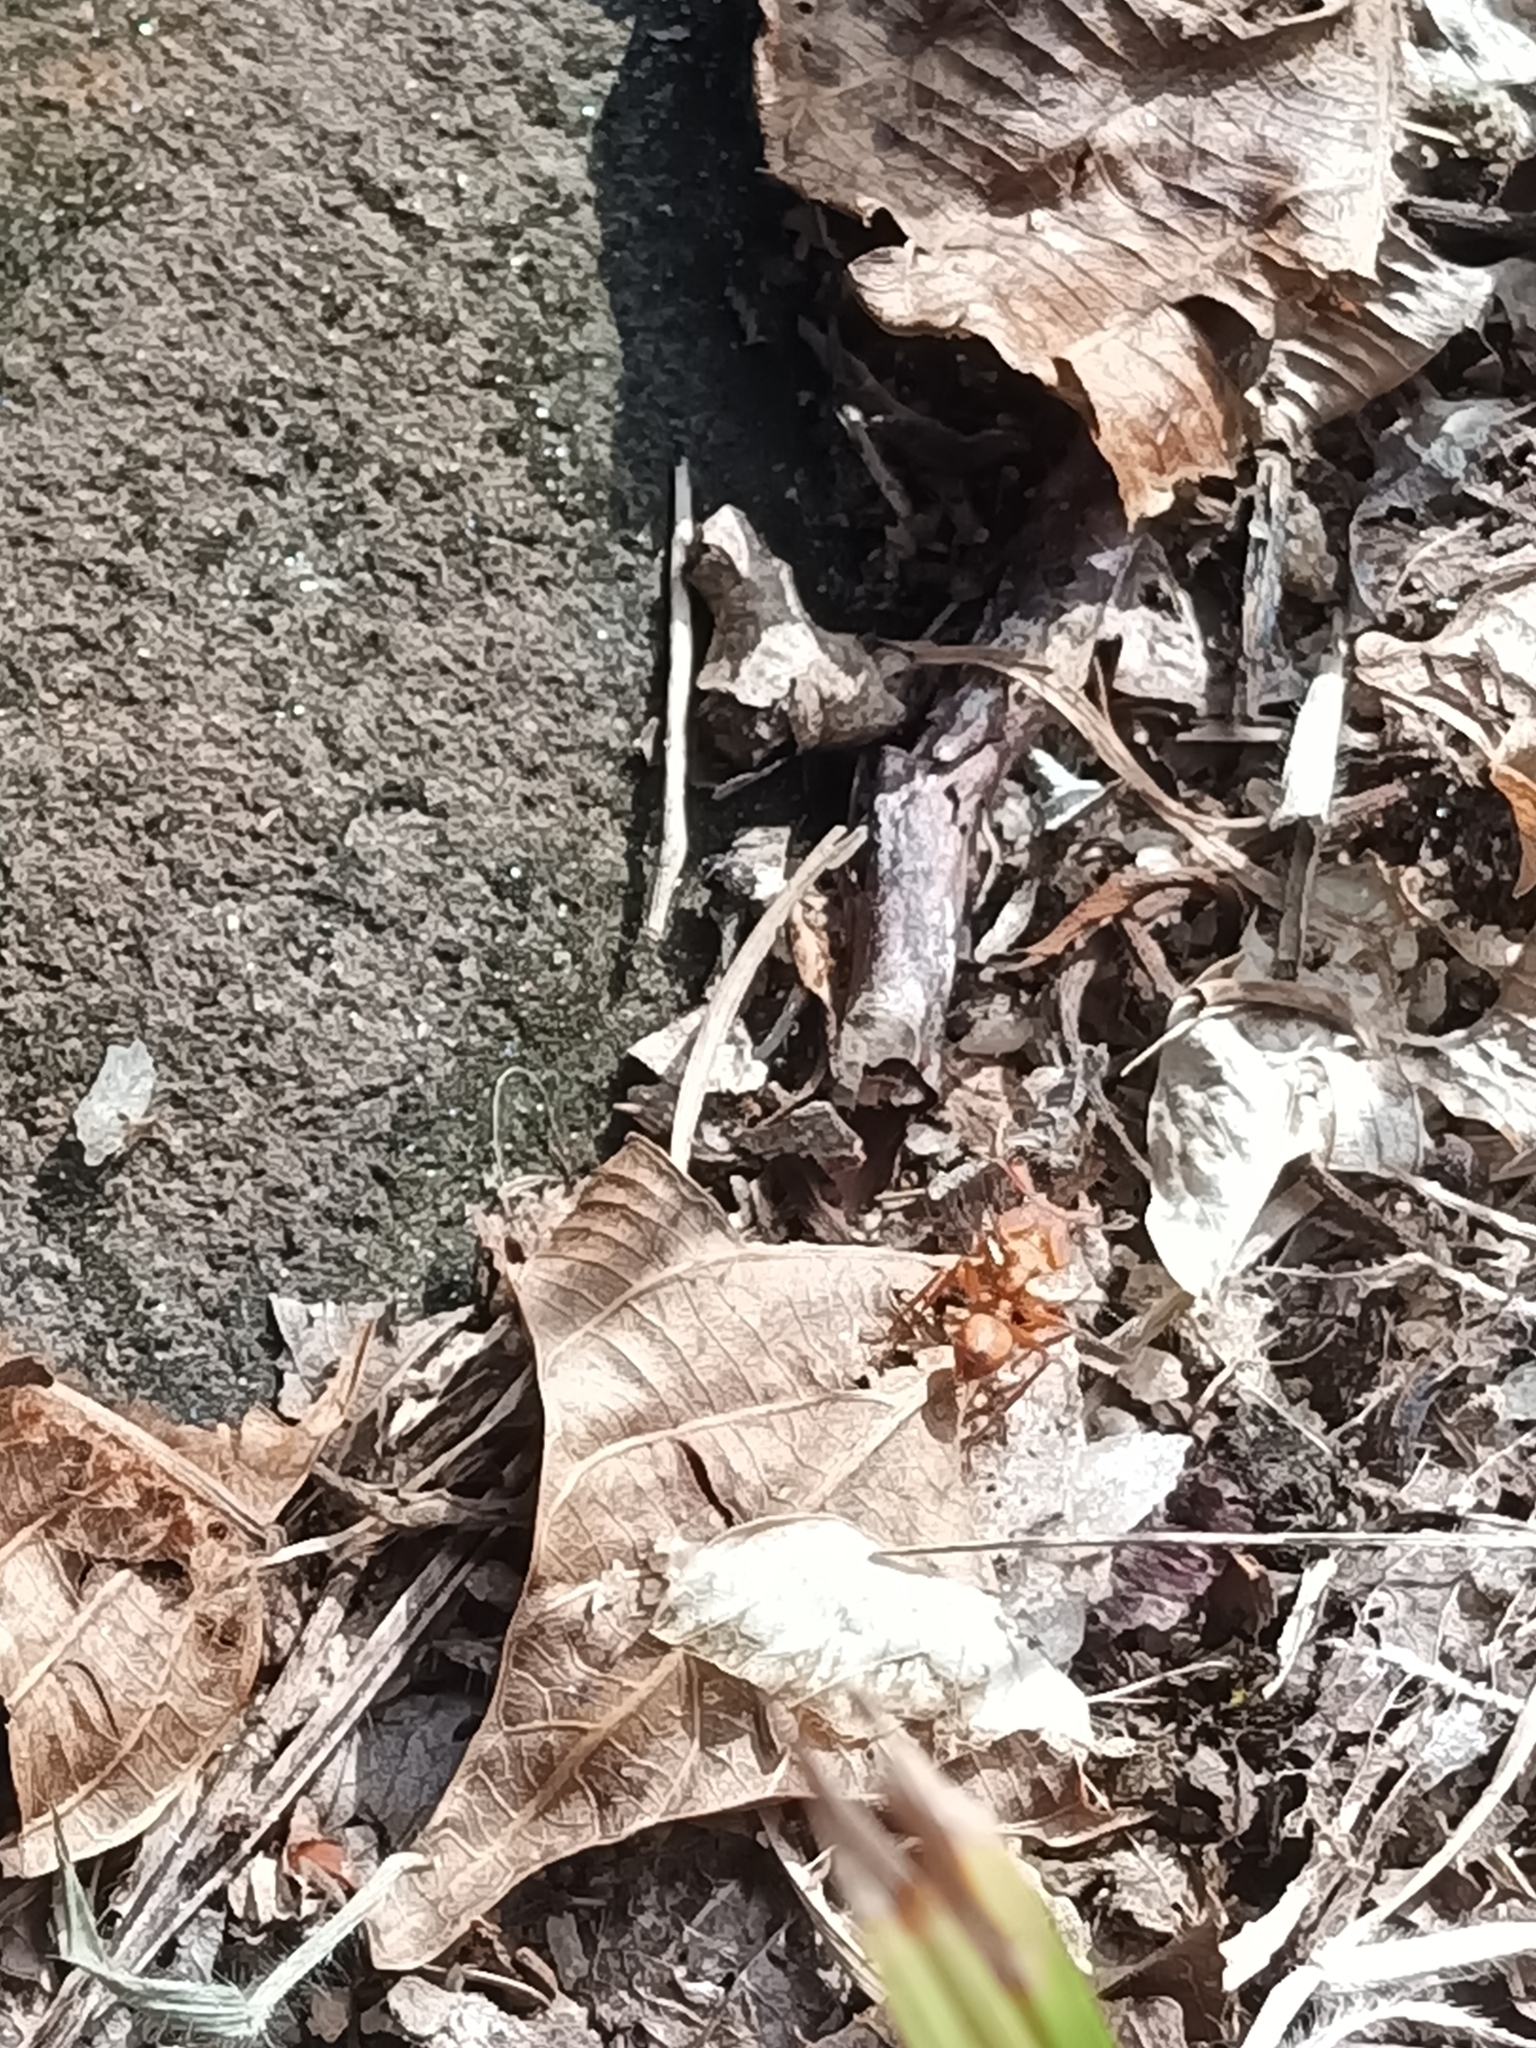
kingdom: Animalia
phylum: Arthropoda
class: Insecta
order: Hymenoptera
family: Formicidae
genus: Daceton
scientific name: Daceton armigerum
